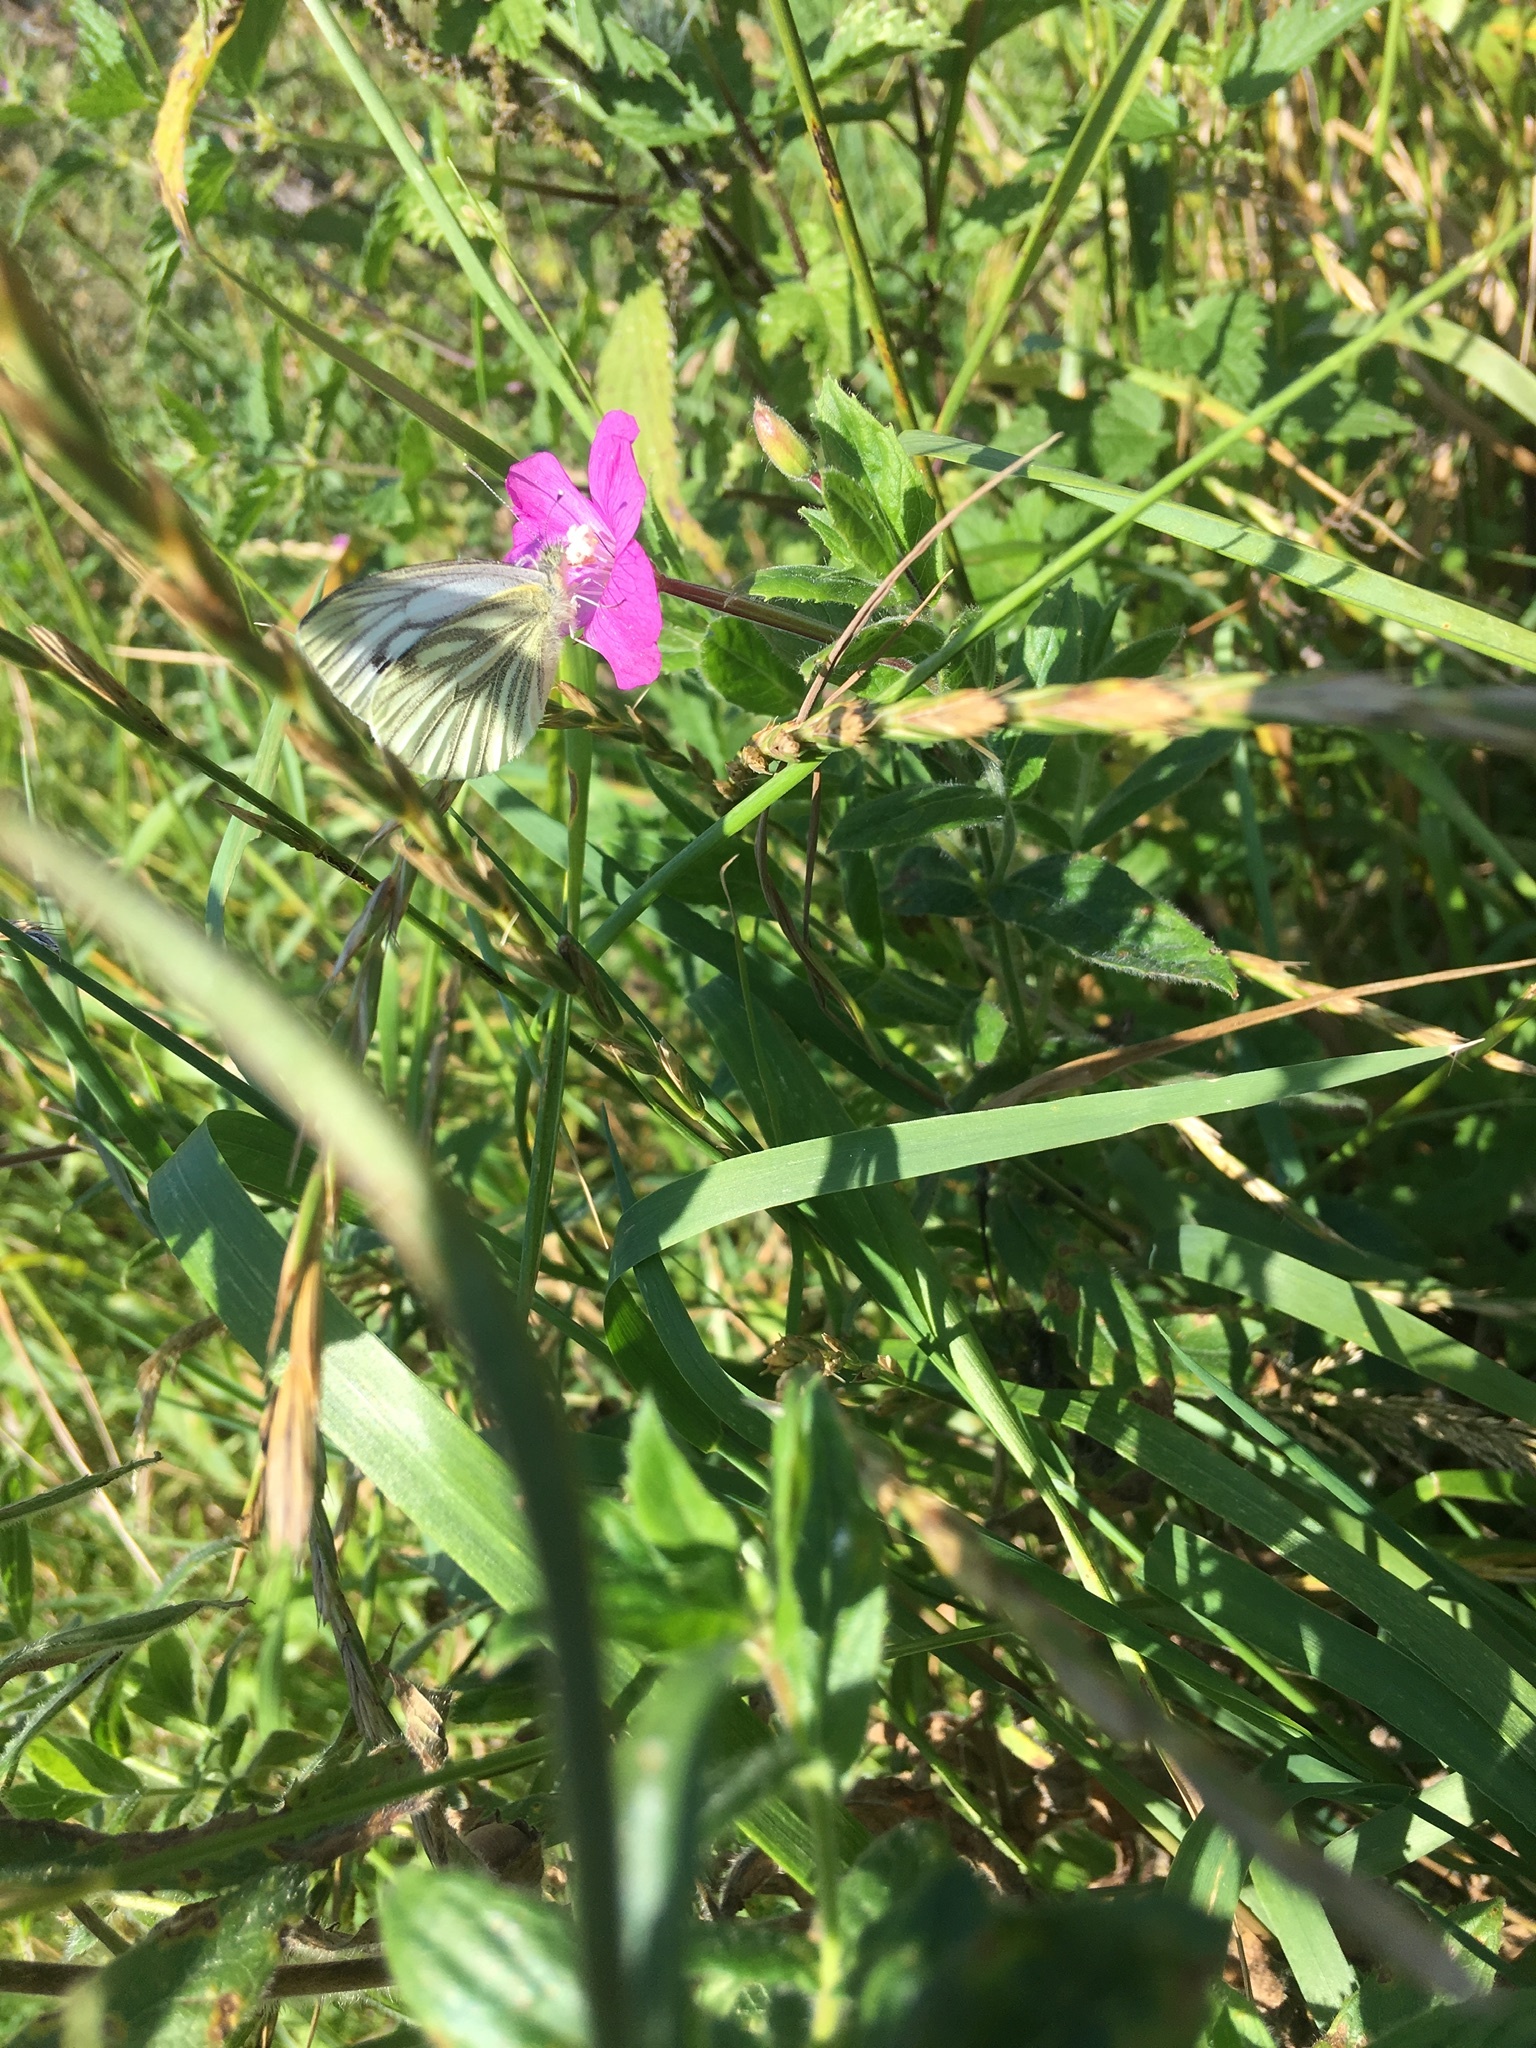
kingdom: Animalia
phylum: Arthropoda
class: Insecta
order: Lepidoptera
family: Pieridae
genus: Pieris
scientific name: Pieris napi
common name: Green-veined white
